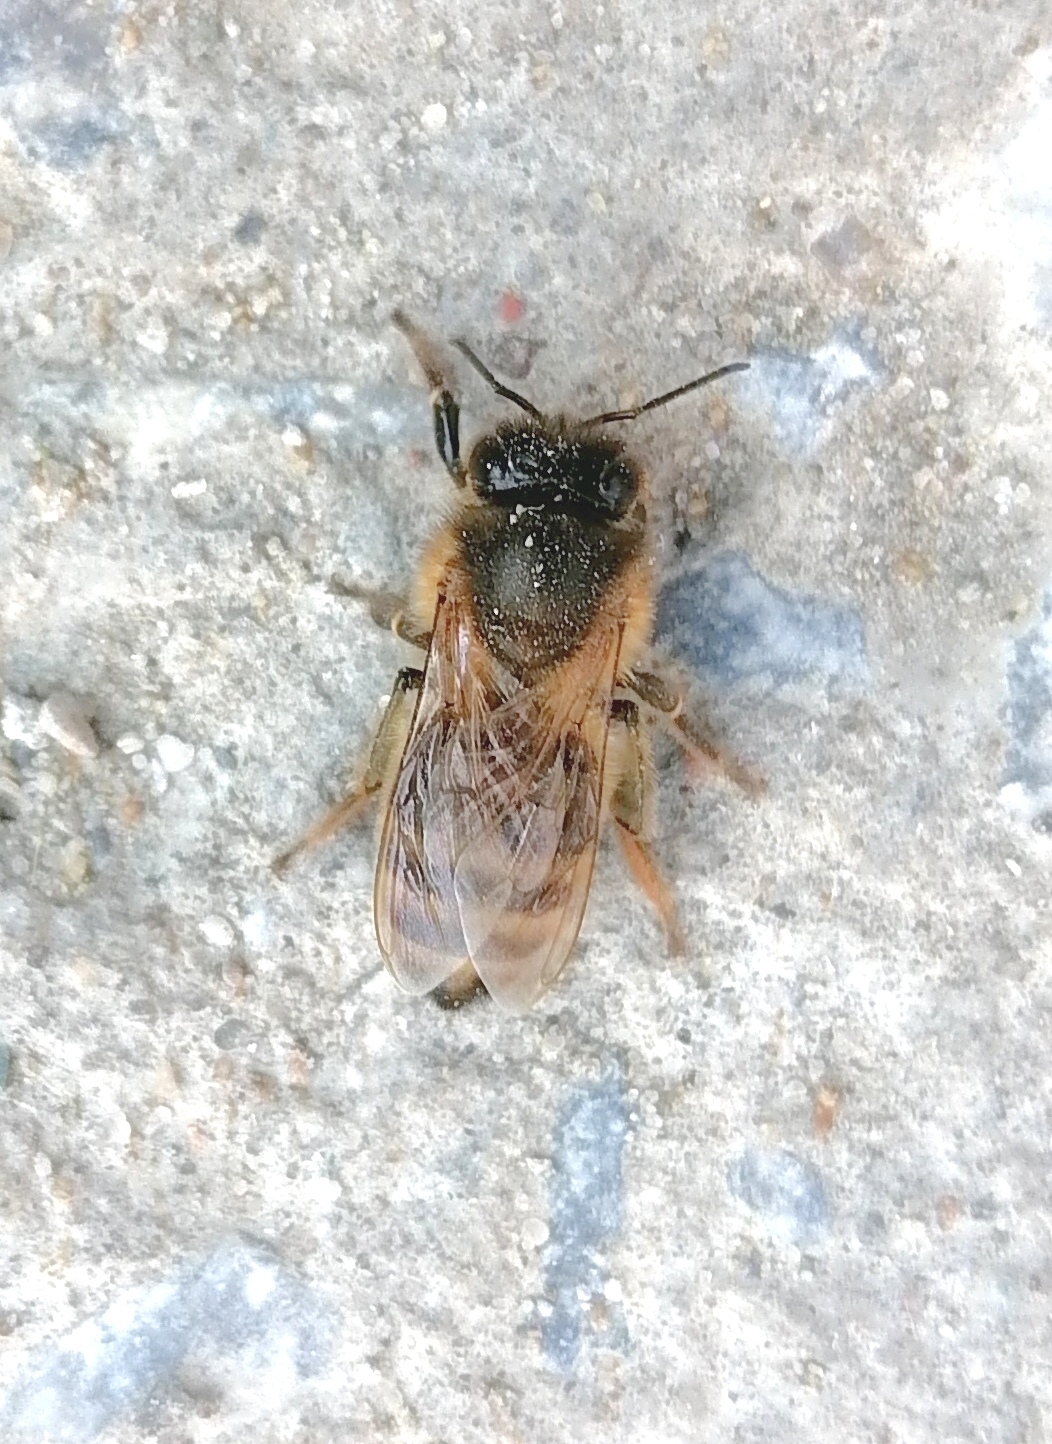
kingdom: Animalia
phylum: Arthropoda
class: Insecta
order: Hymenoptera
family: Apidae
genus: Apis
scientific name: Apis mellifera
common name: Honey bee
